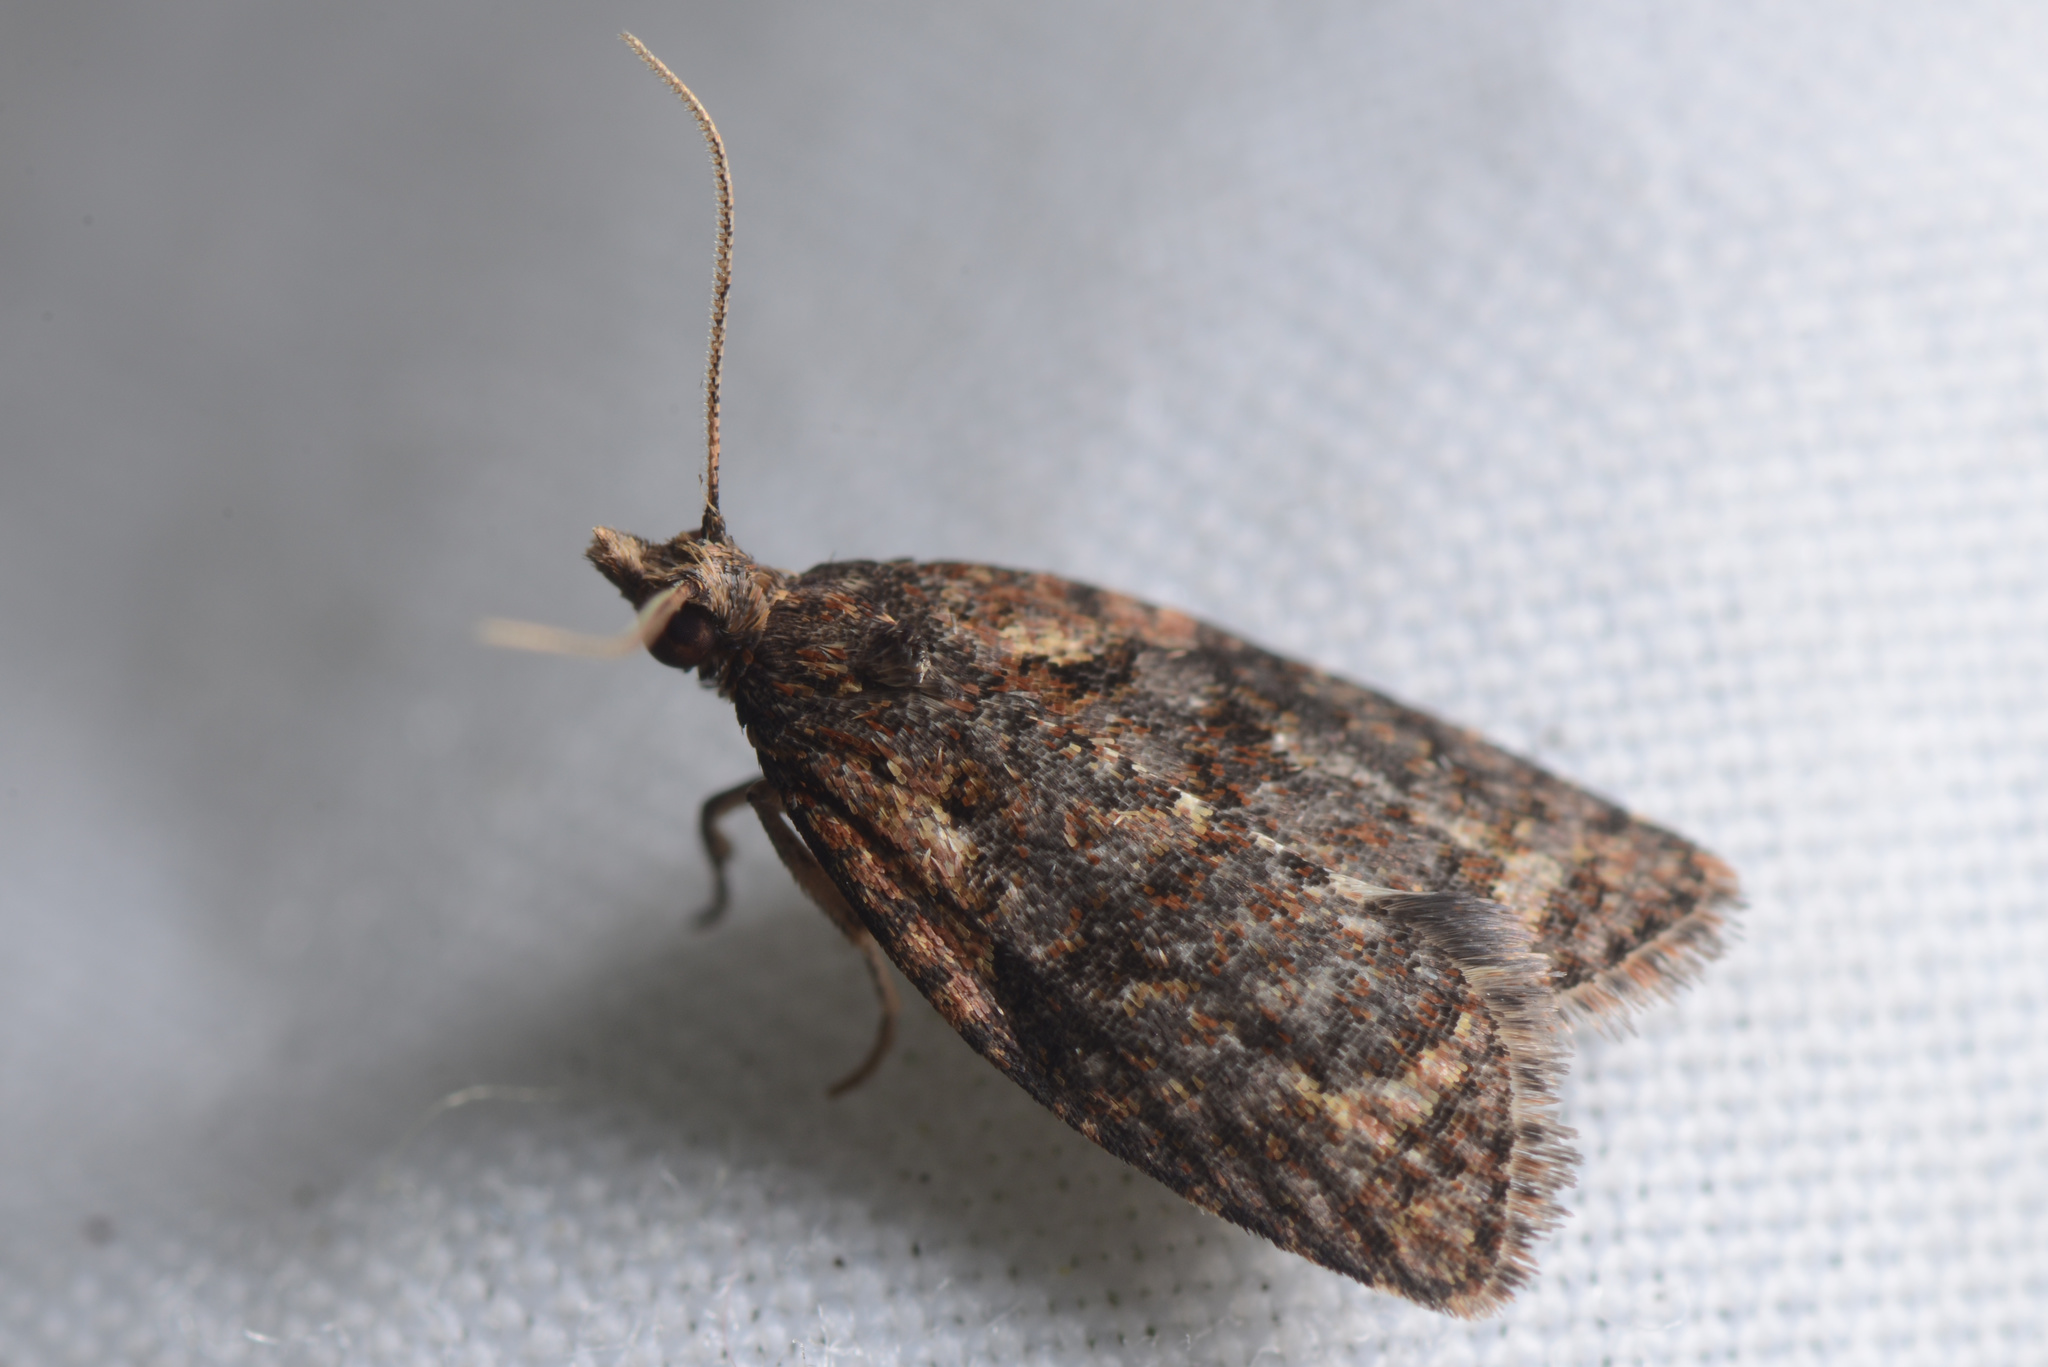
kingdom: Animalia
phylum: Arthropoda
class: Insecta
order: Lepidoptera
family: Tortricidae
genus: Capua
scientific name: Capua intractana
